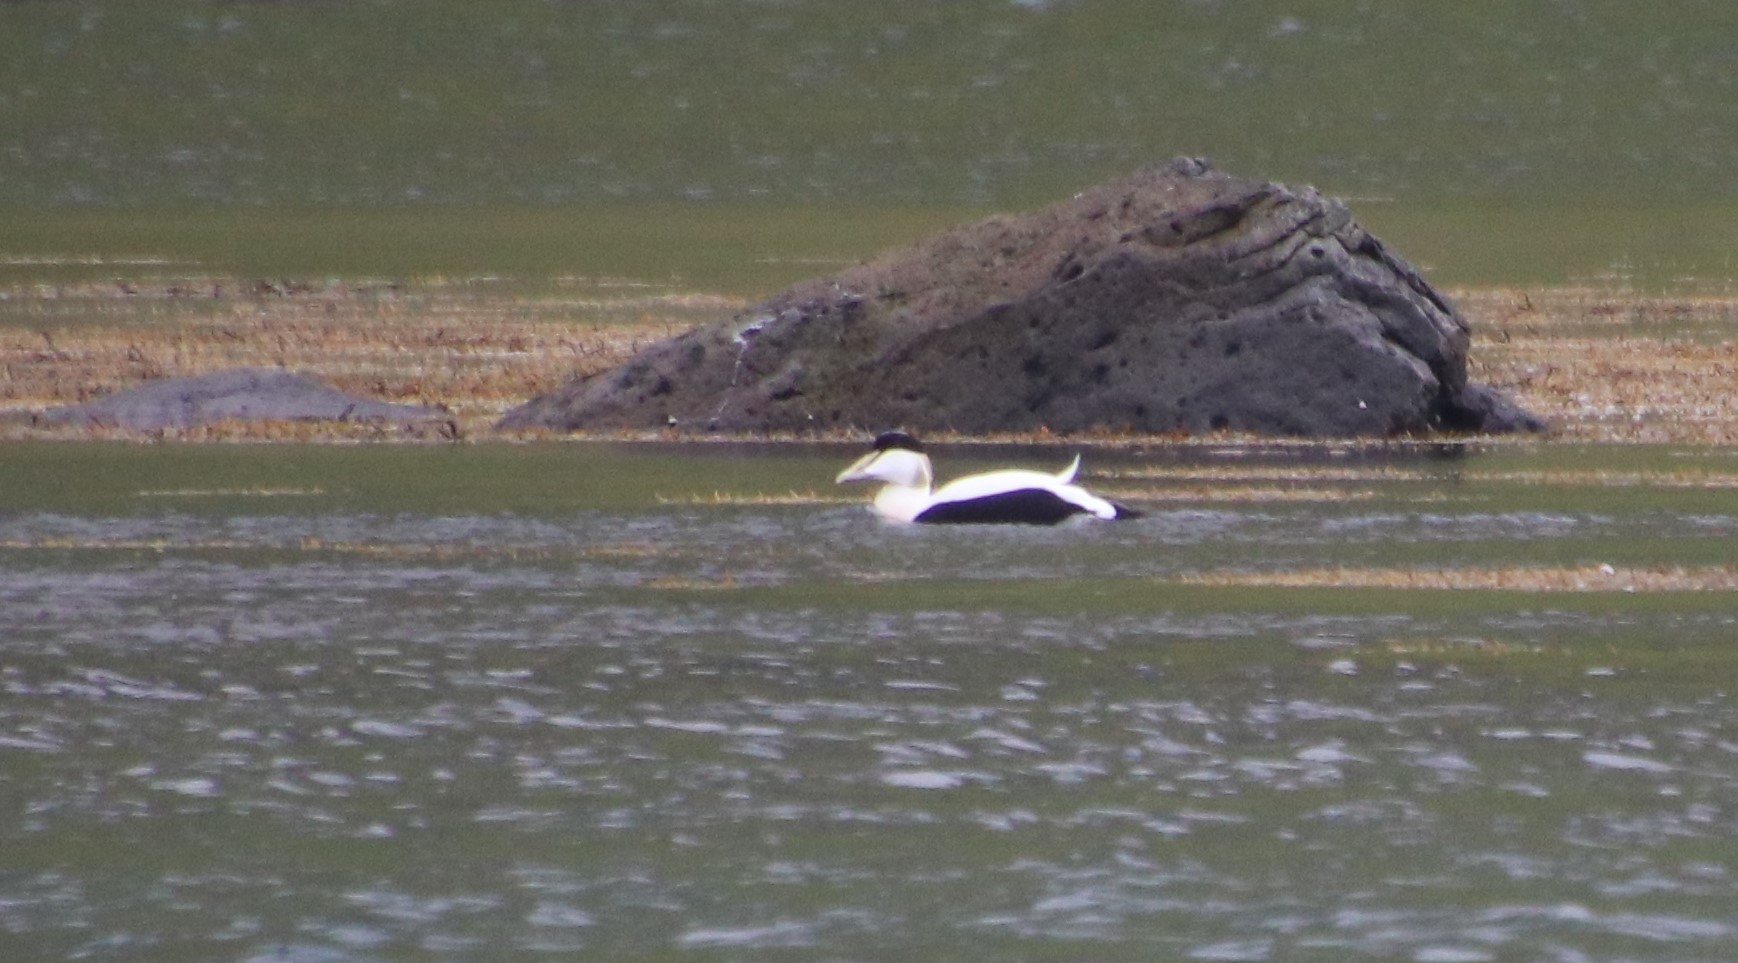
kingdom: Animalia
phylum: Chordata
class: Aves
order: Anseriformes
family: Anatidae
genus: Somateria
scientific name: Somateria mollissima
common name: Common eider
